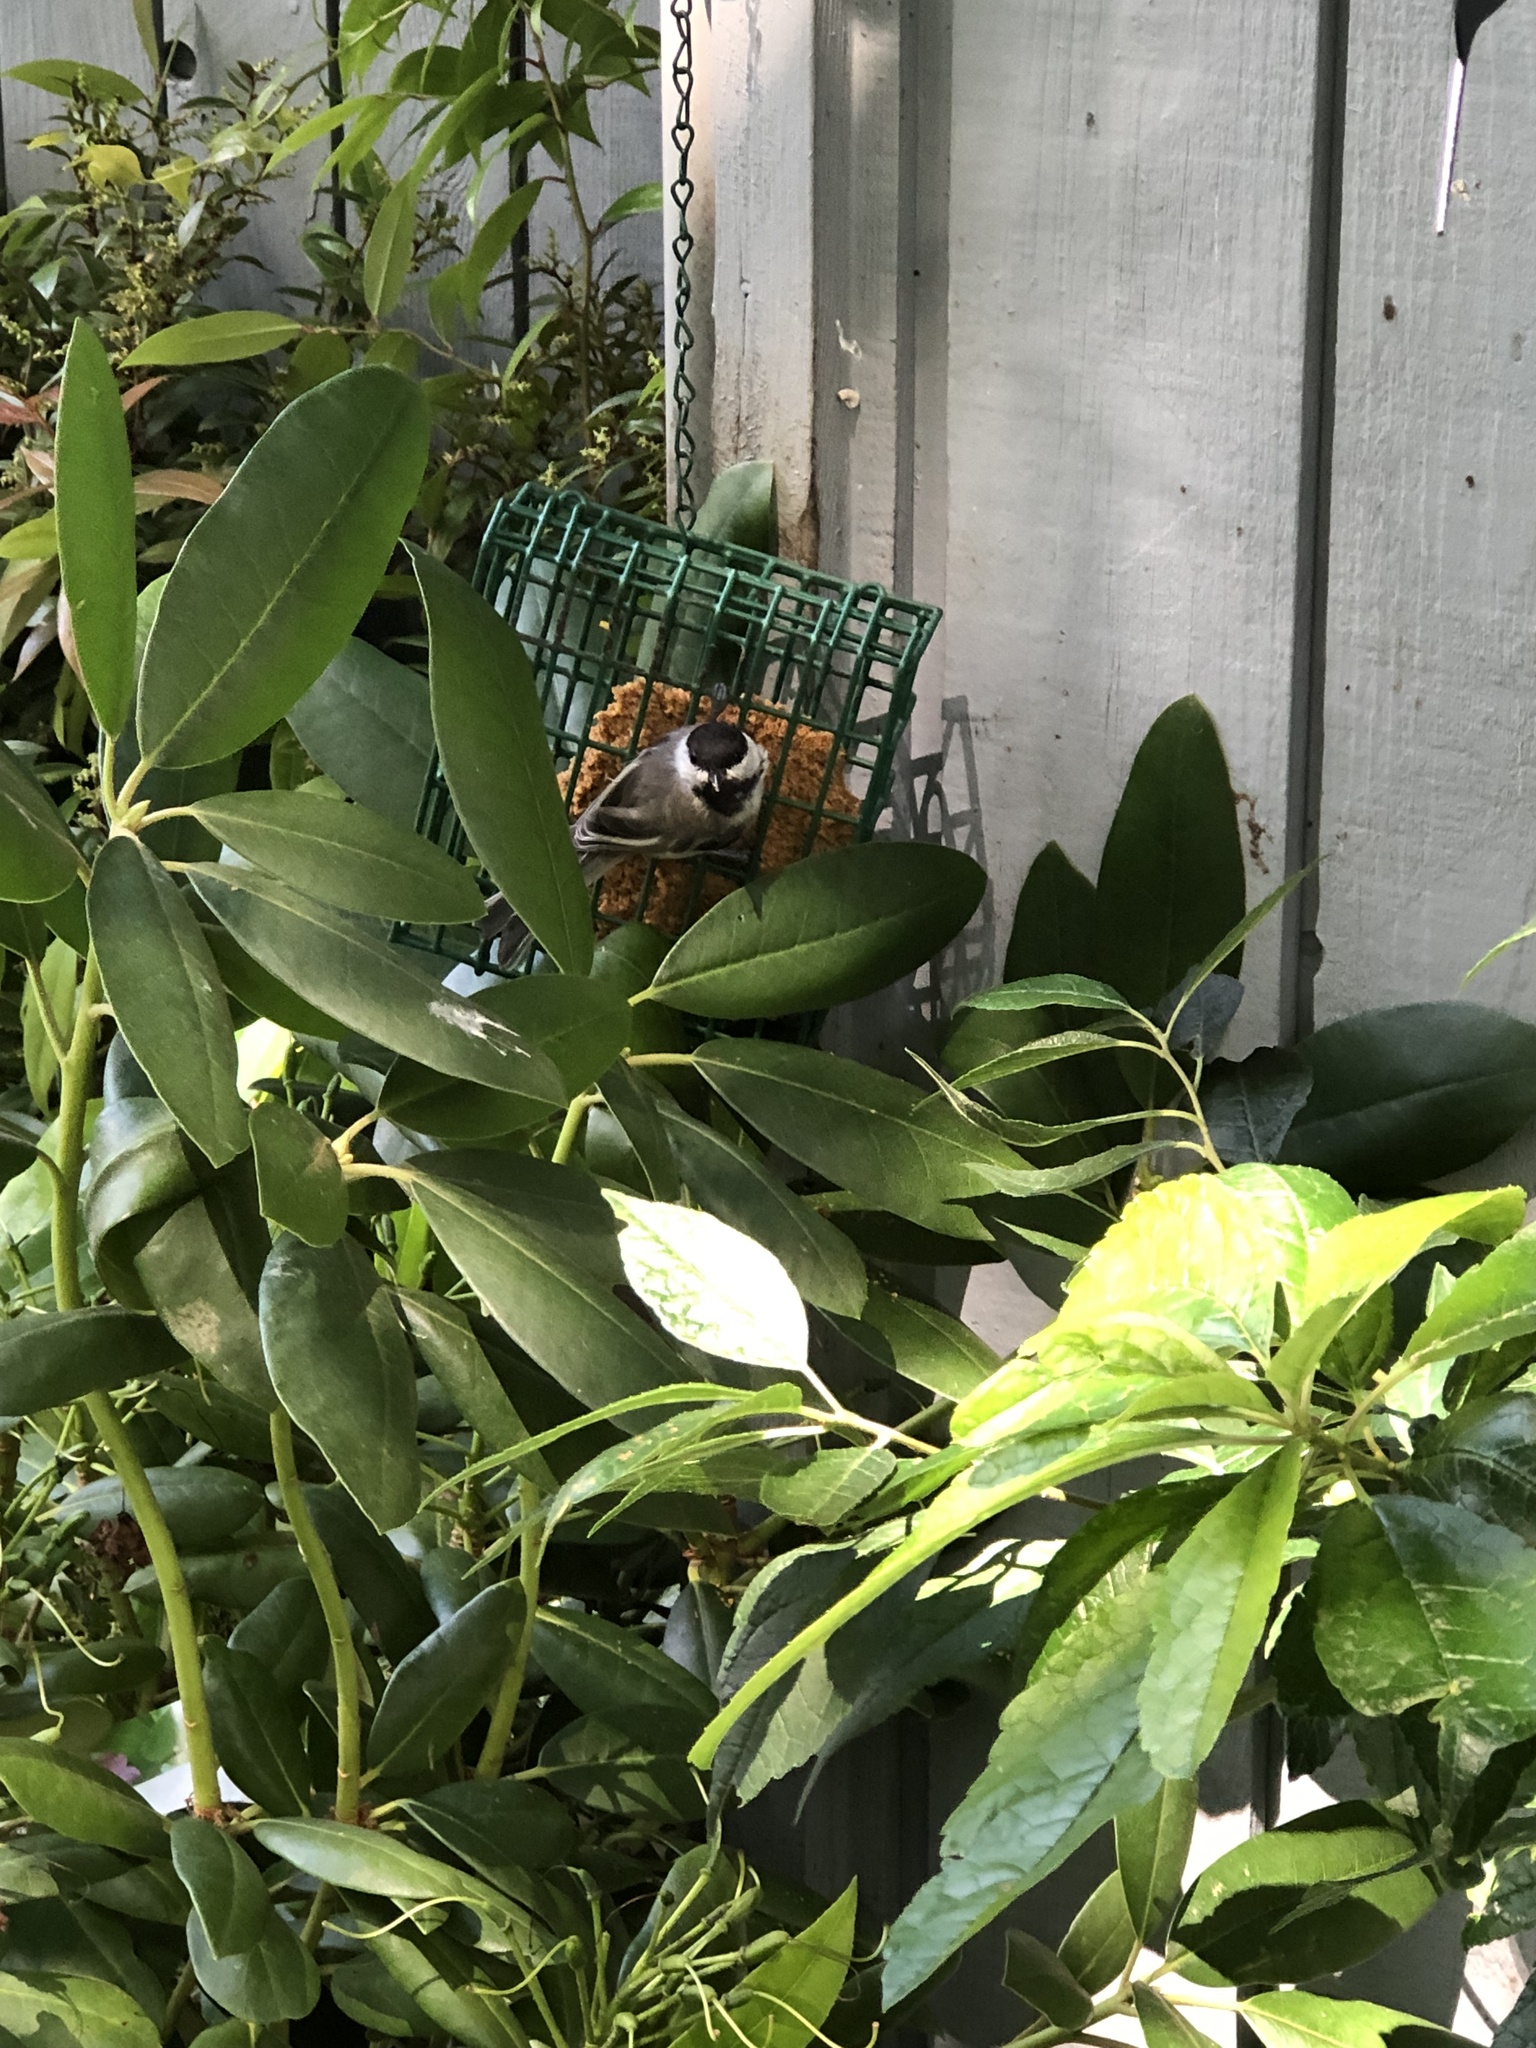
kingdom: Animalia
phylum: Chordata
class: Aves
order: Passeriformes
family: Paridae
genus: Poecile
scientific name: Poecile atricapillus
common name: Black-capped chickadee
